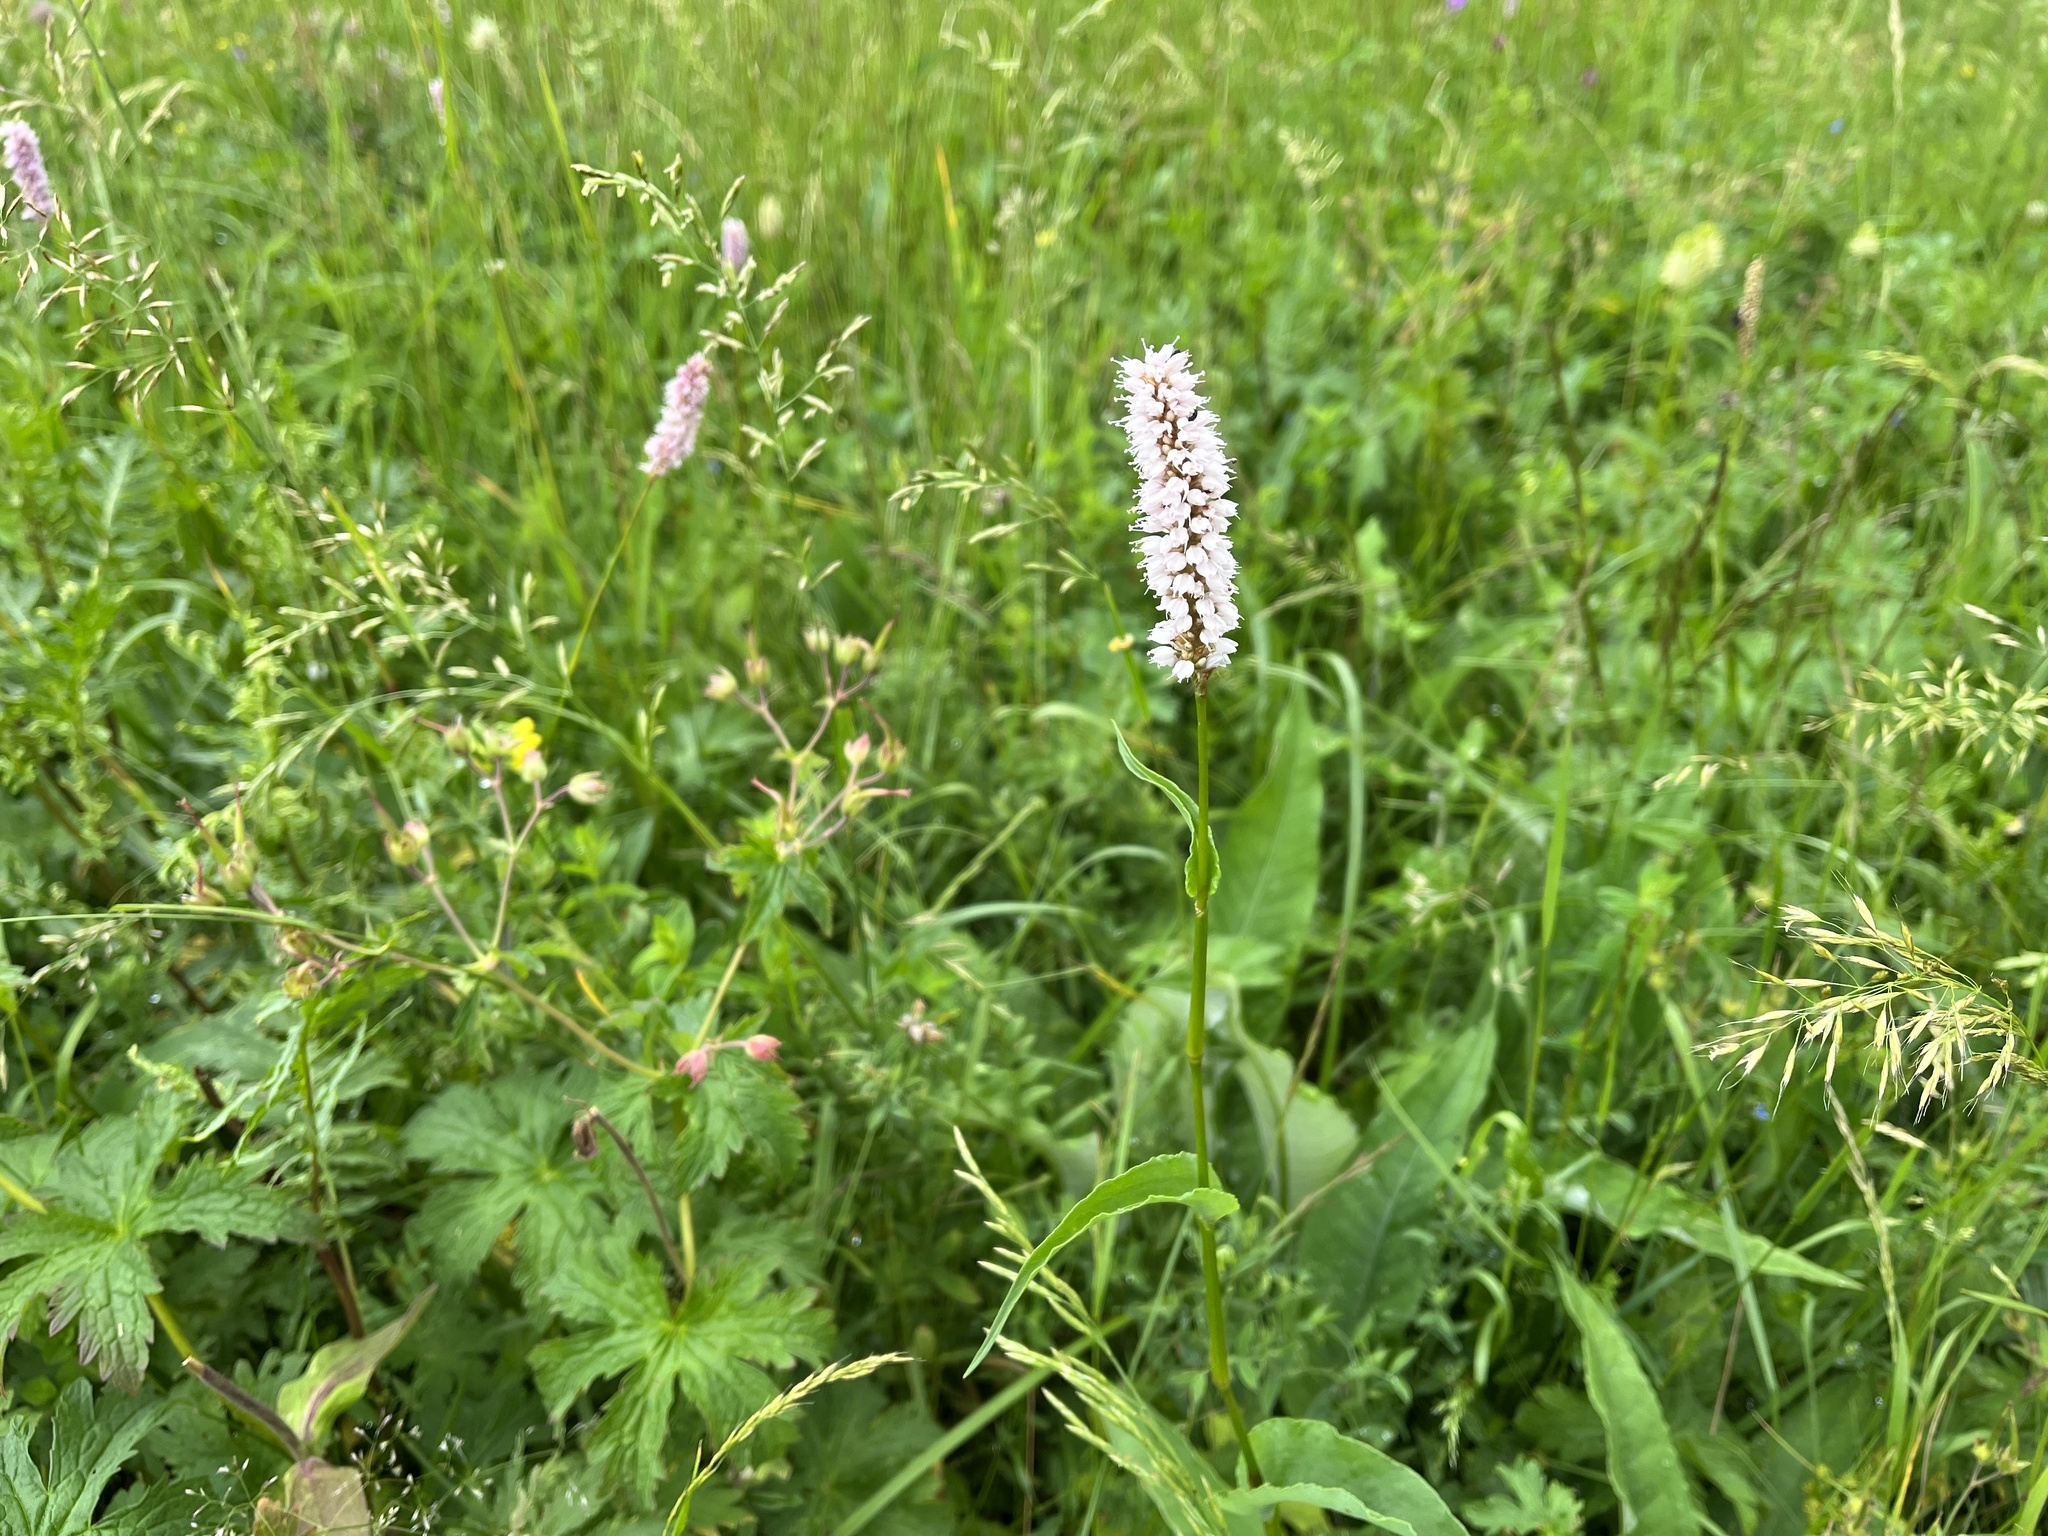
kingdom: Plantae
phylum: Tracheophyta
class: Magnoliopsida
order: Caryophyllales
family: Polygonaceae
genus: Bistorta
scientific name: Bistorta officinalis
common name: Common bistort
